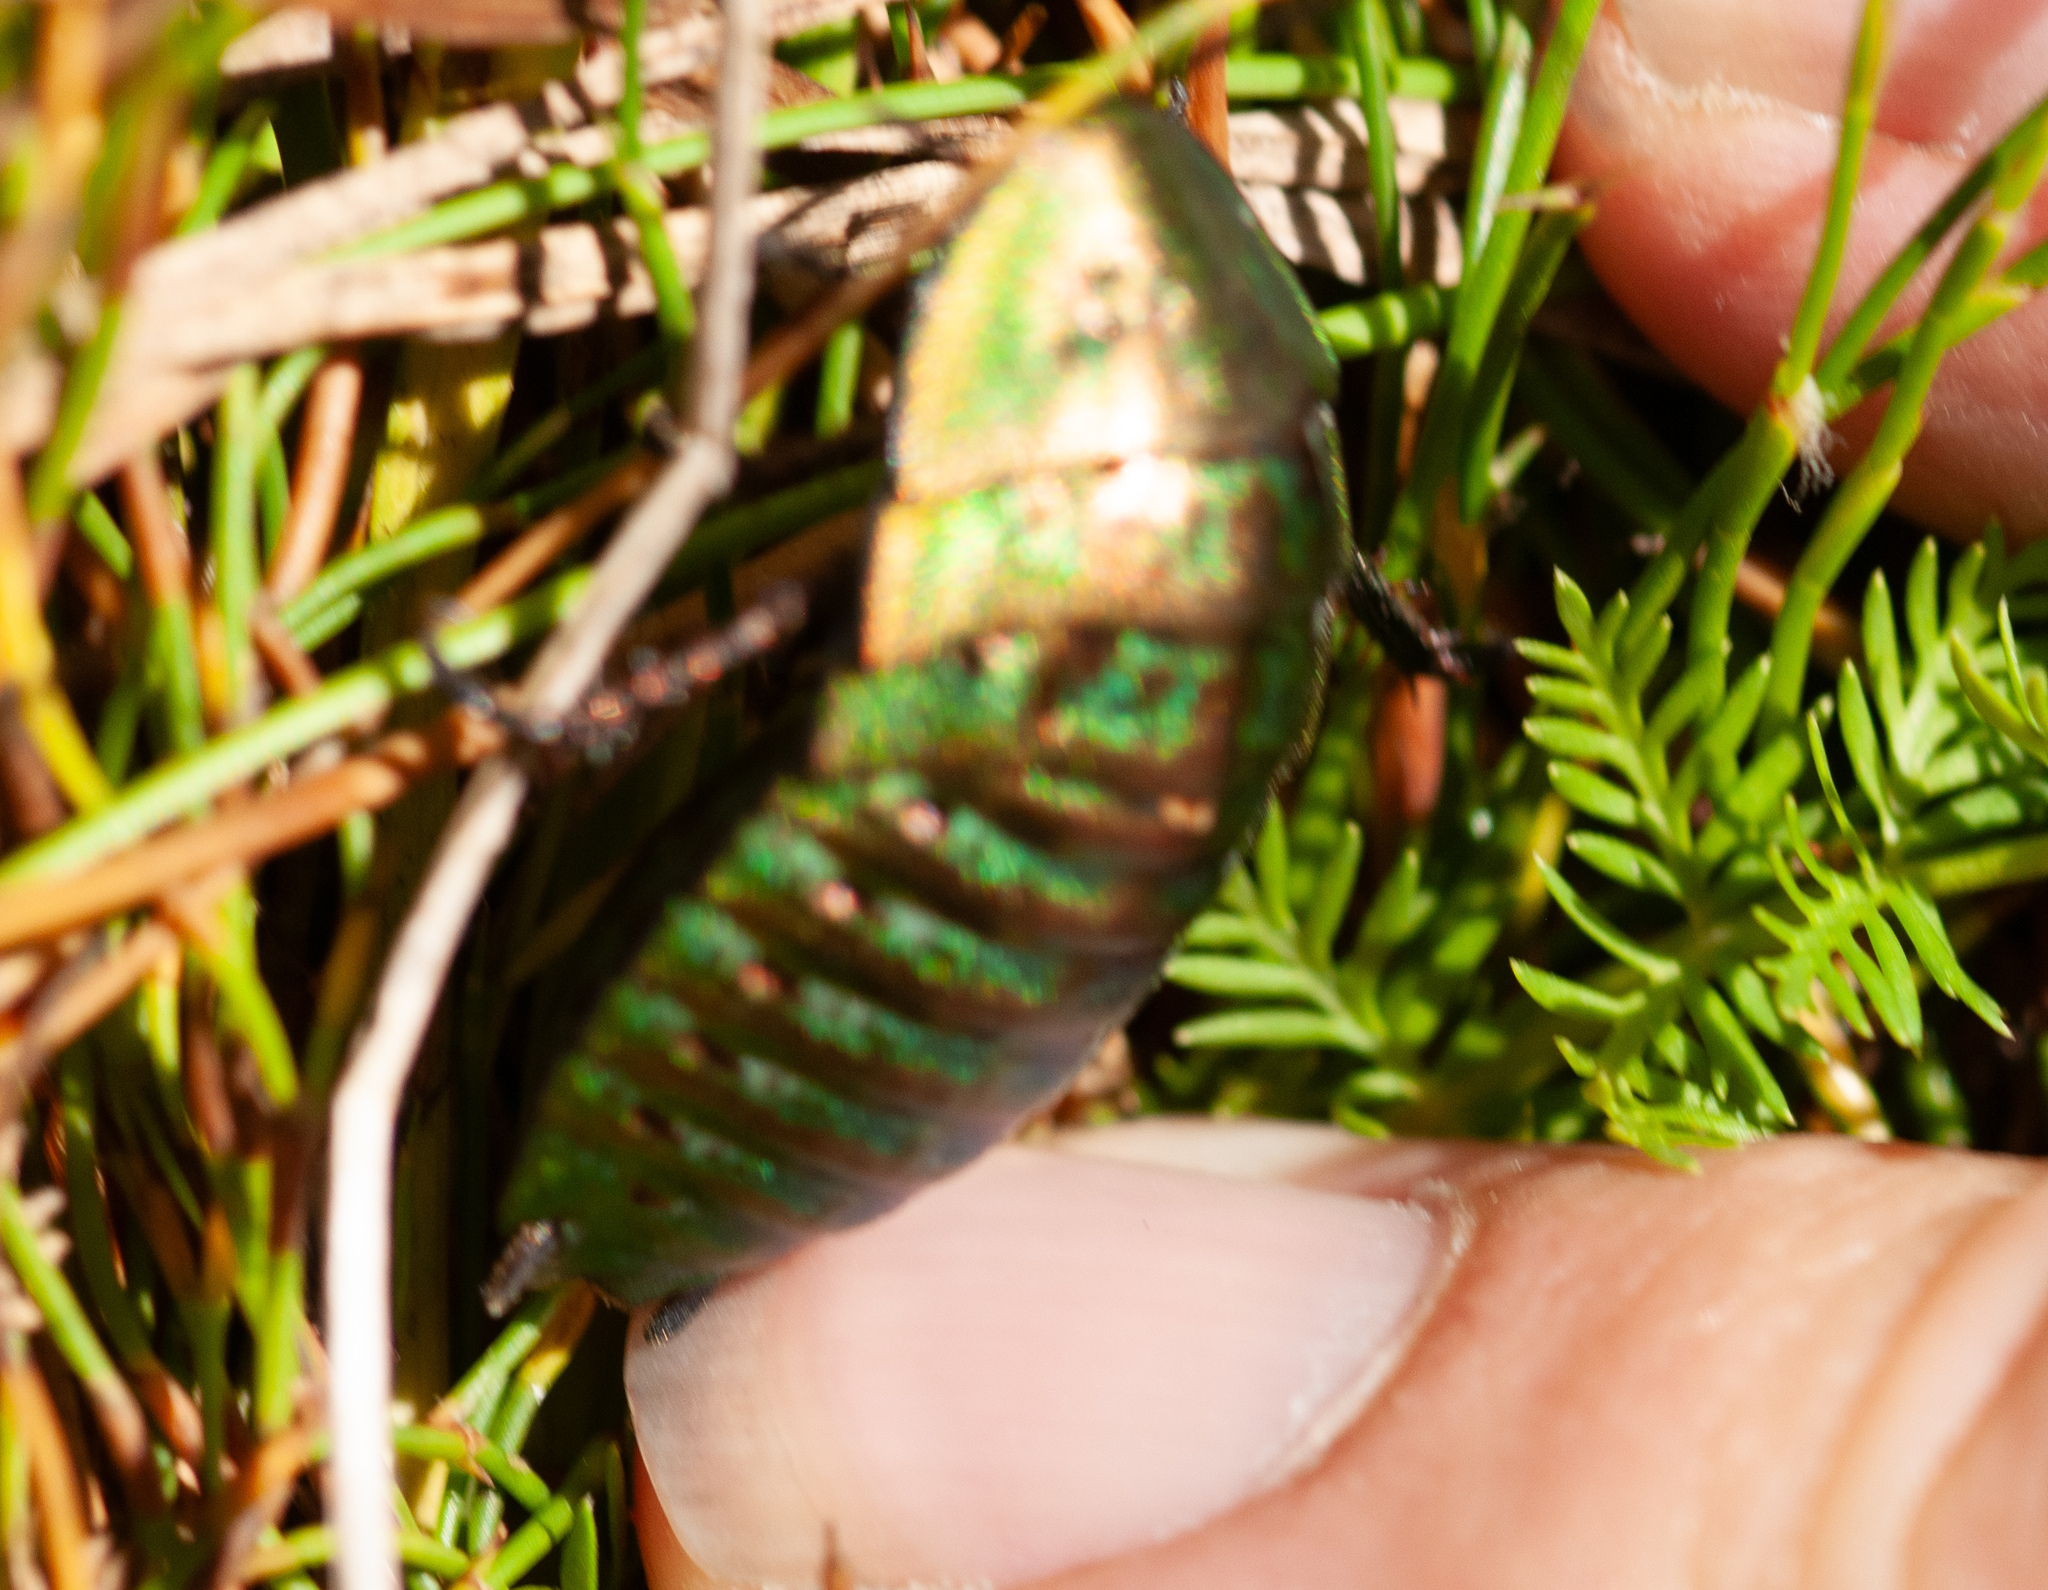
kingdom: Animalia
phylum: Arthropoda
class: Insecta
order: Blattodea
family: Blattidae
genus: Polyzosteria
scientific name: Polyzosteria viridissima
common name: Kosciuszko metallic cockroach
